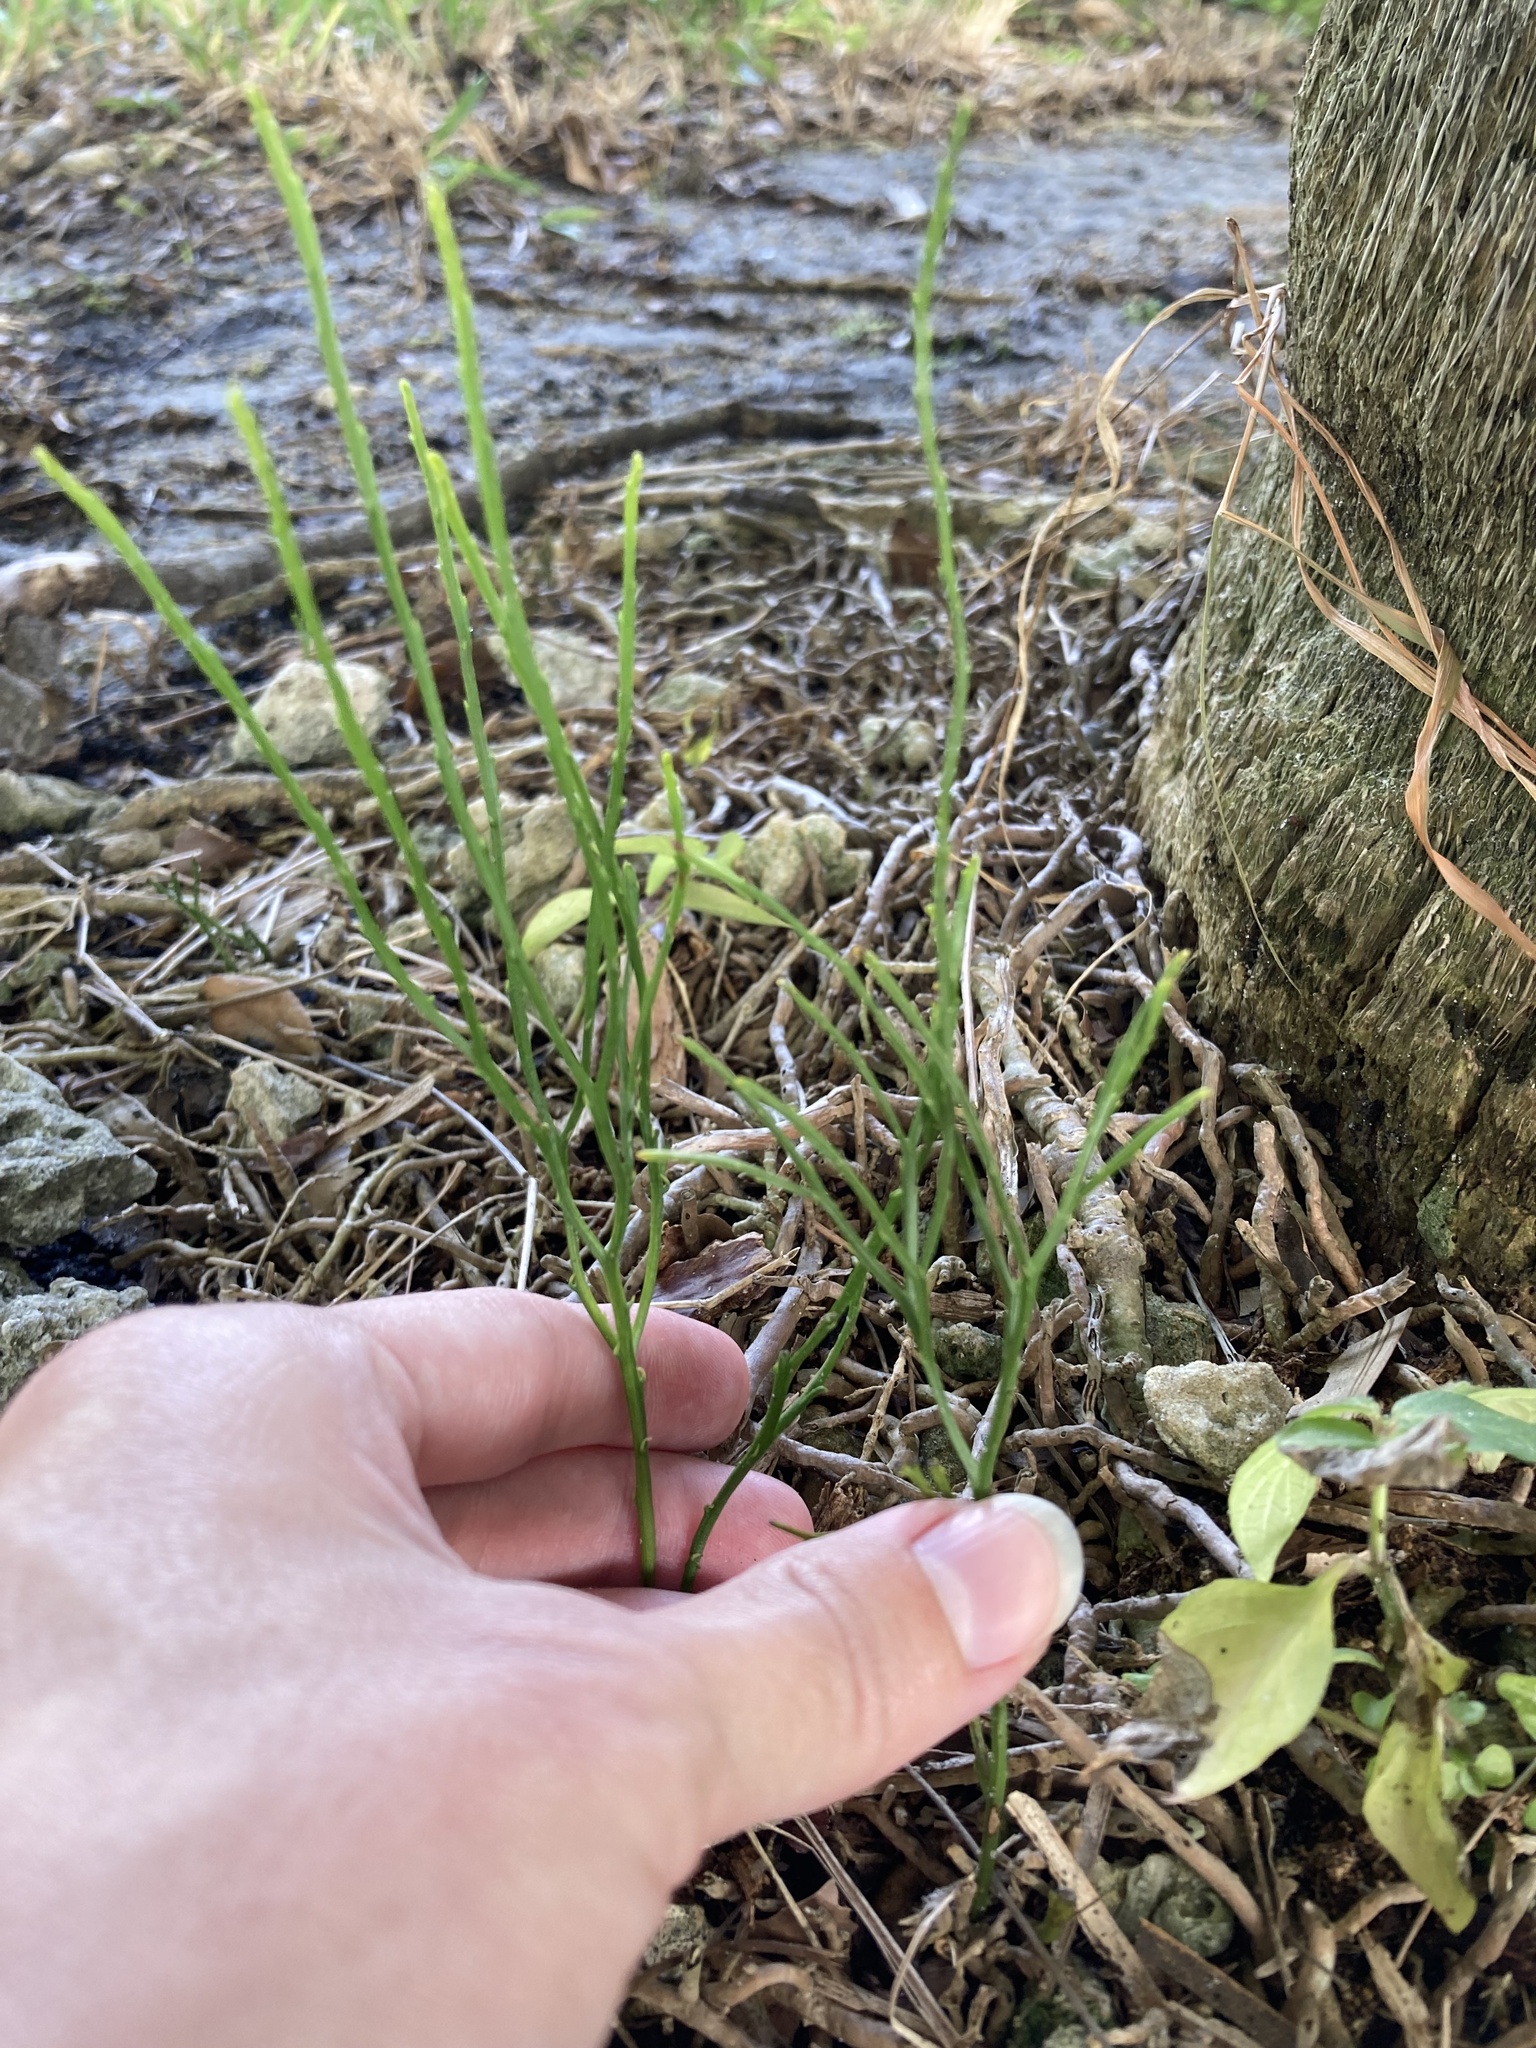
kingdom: Plantae
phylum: Tracheophyta
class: Polypodiopsida
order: Psilotales
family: Psilotaceae
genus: Psilotum
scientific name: Psilotum nudum
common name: Skeleton fork fern
